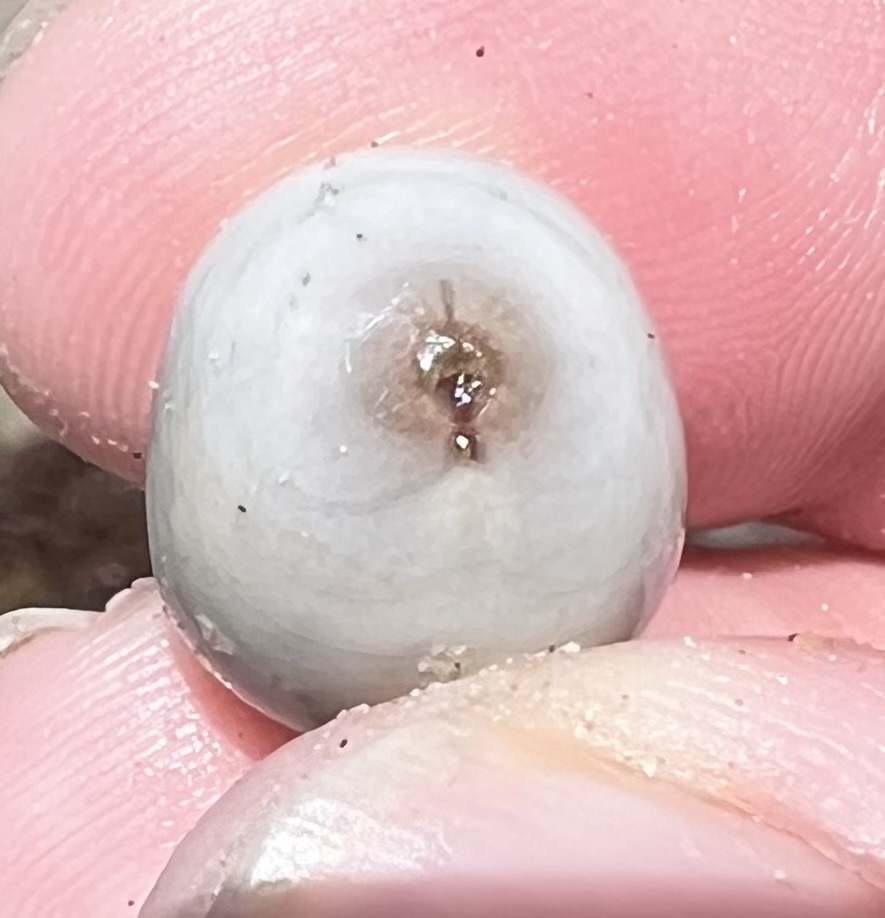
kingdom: Plantae
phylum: Tracheophyta
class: Magnoliopsida
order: Fabales
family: Fabaceae
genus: Guilandina
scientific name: Guilandina bonduc
